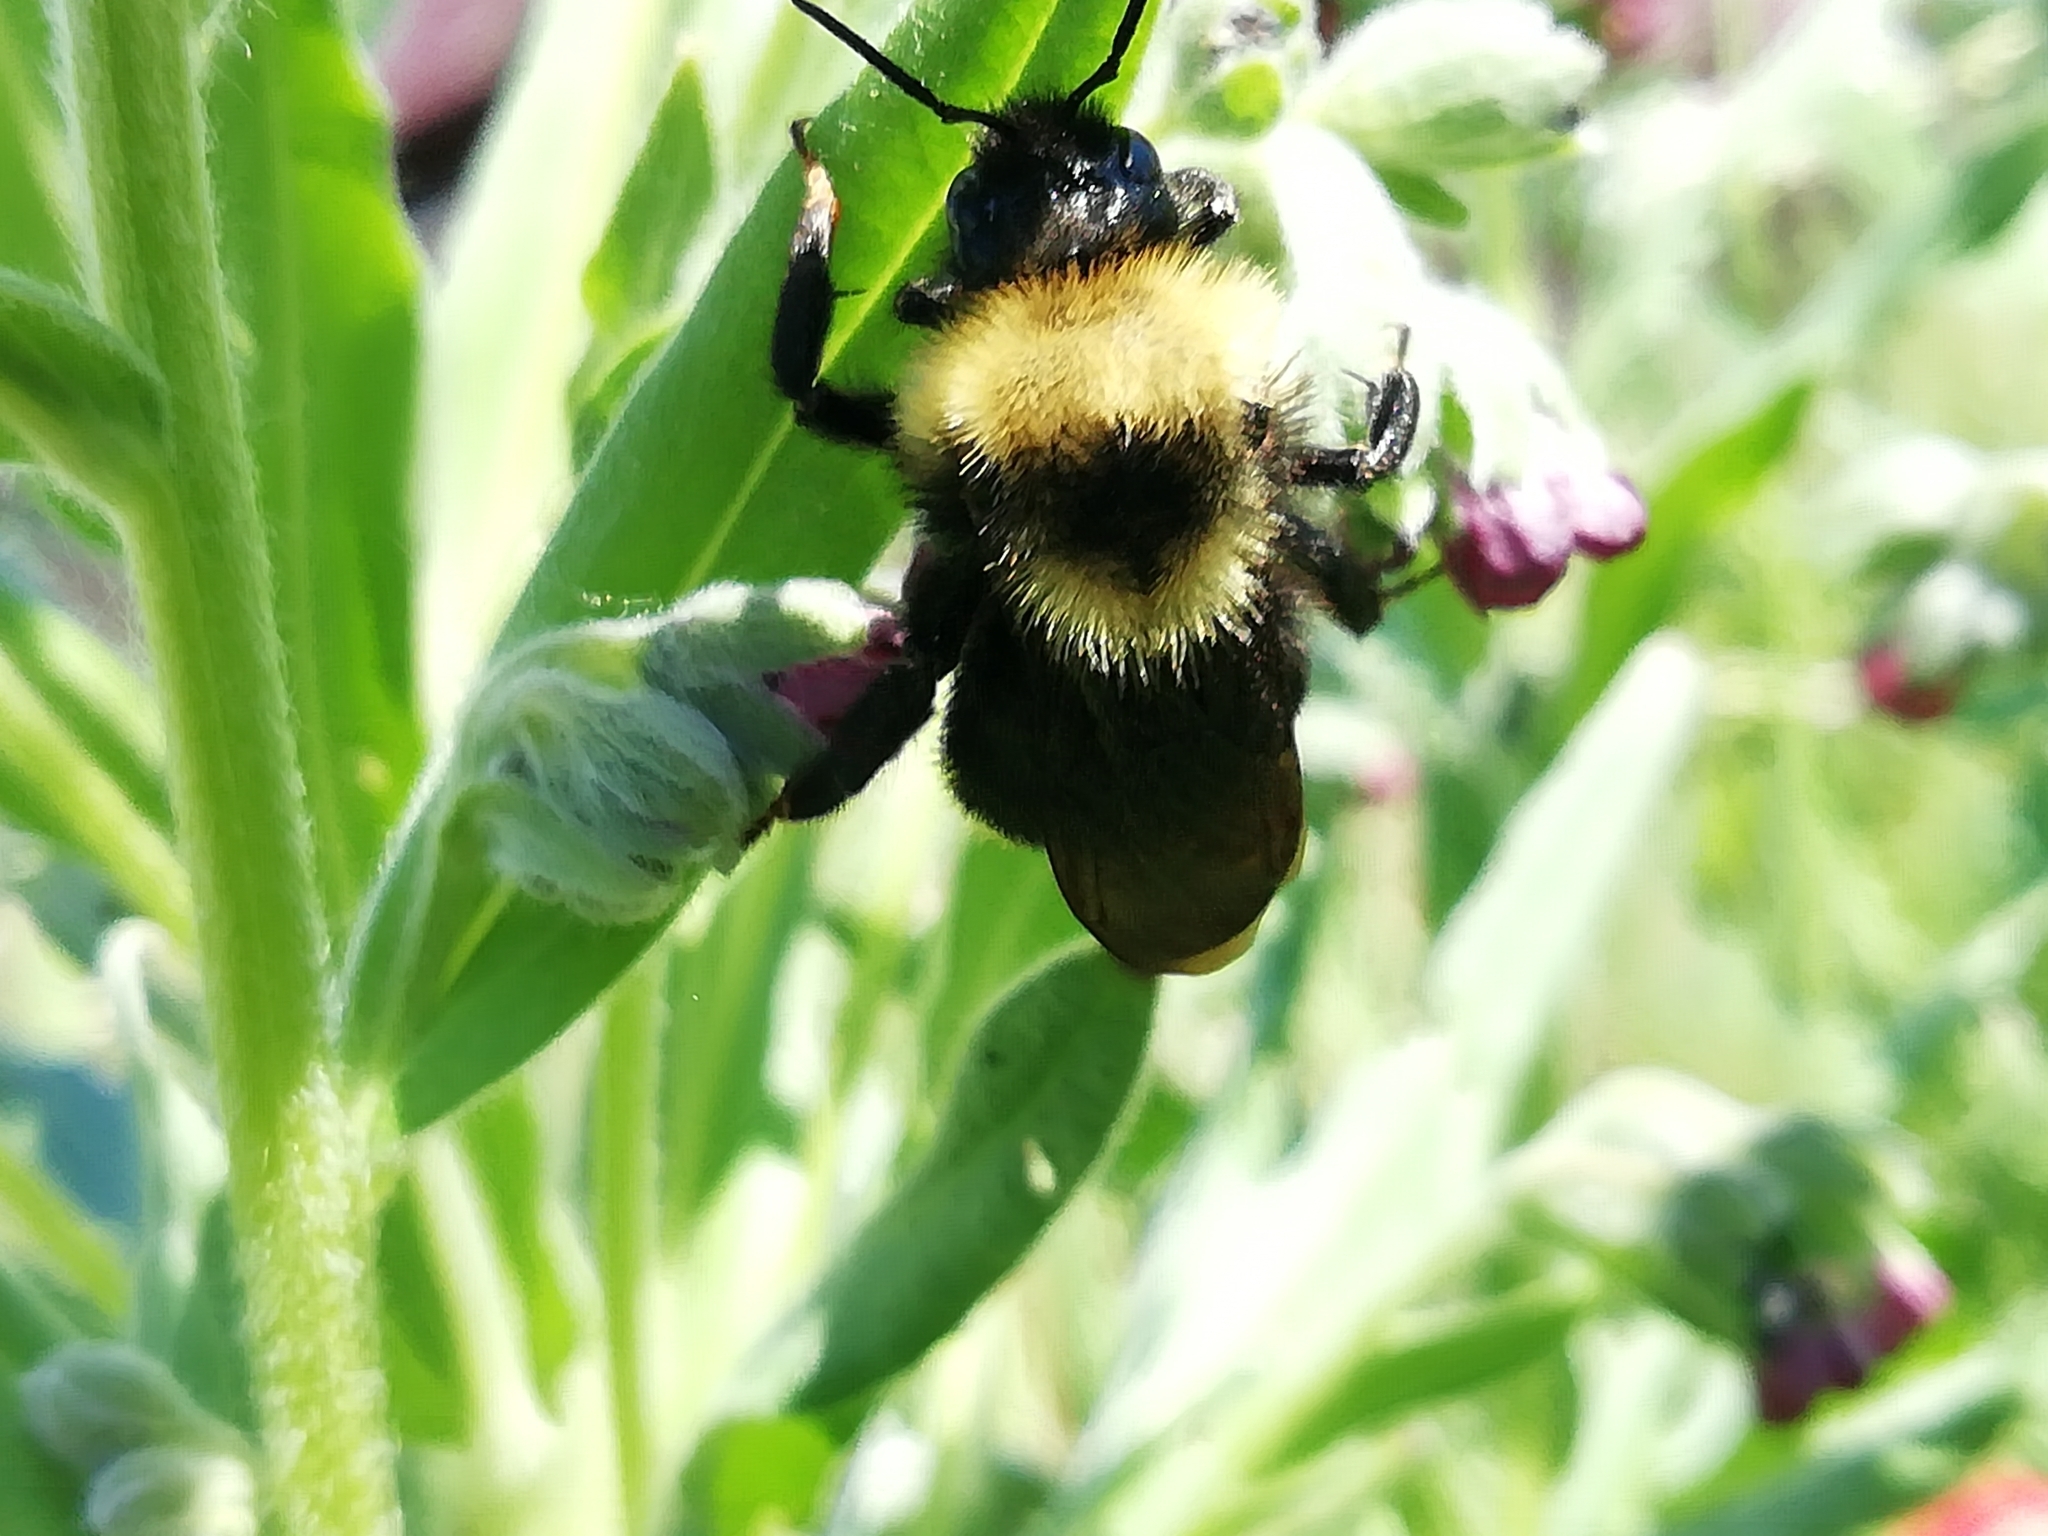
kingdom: Animalia
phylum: Arthropoda
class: Insecta
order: Hymenoptera
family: Apidae
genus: Bombus
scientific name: Bombus campestris
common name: Field cuckoo-bee
